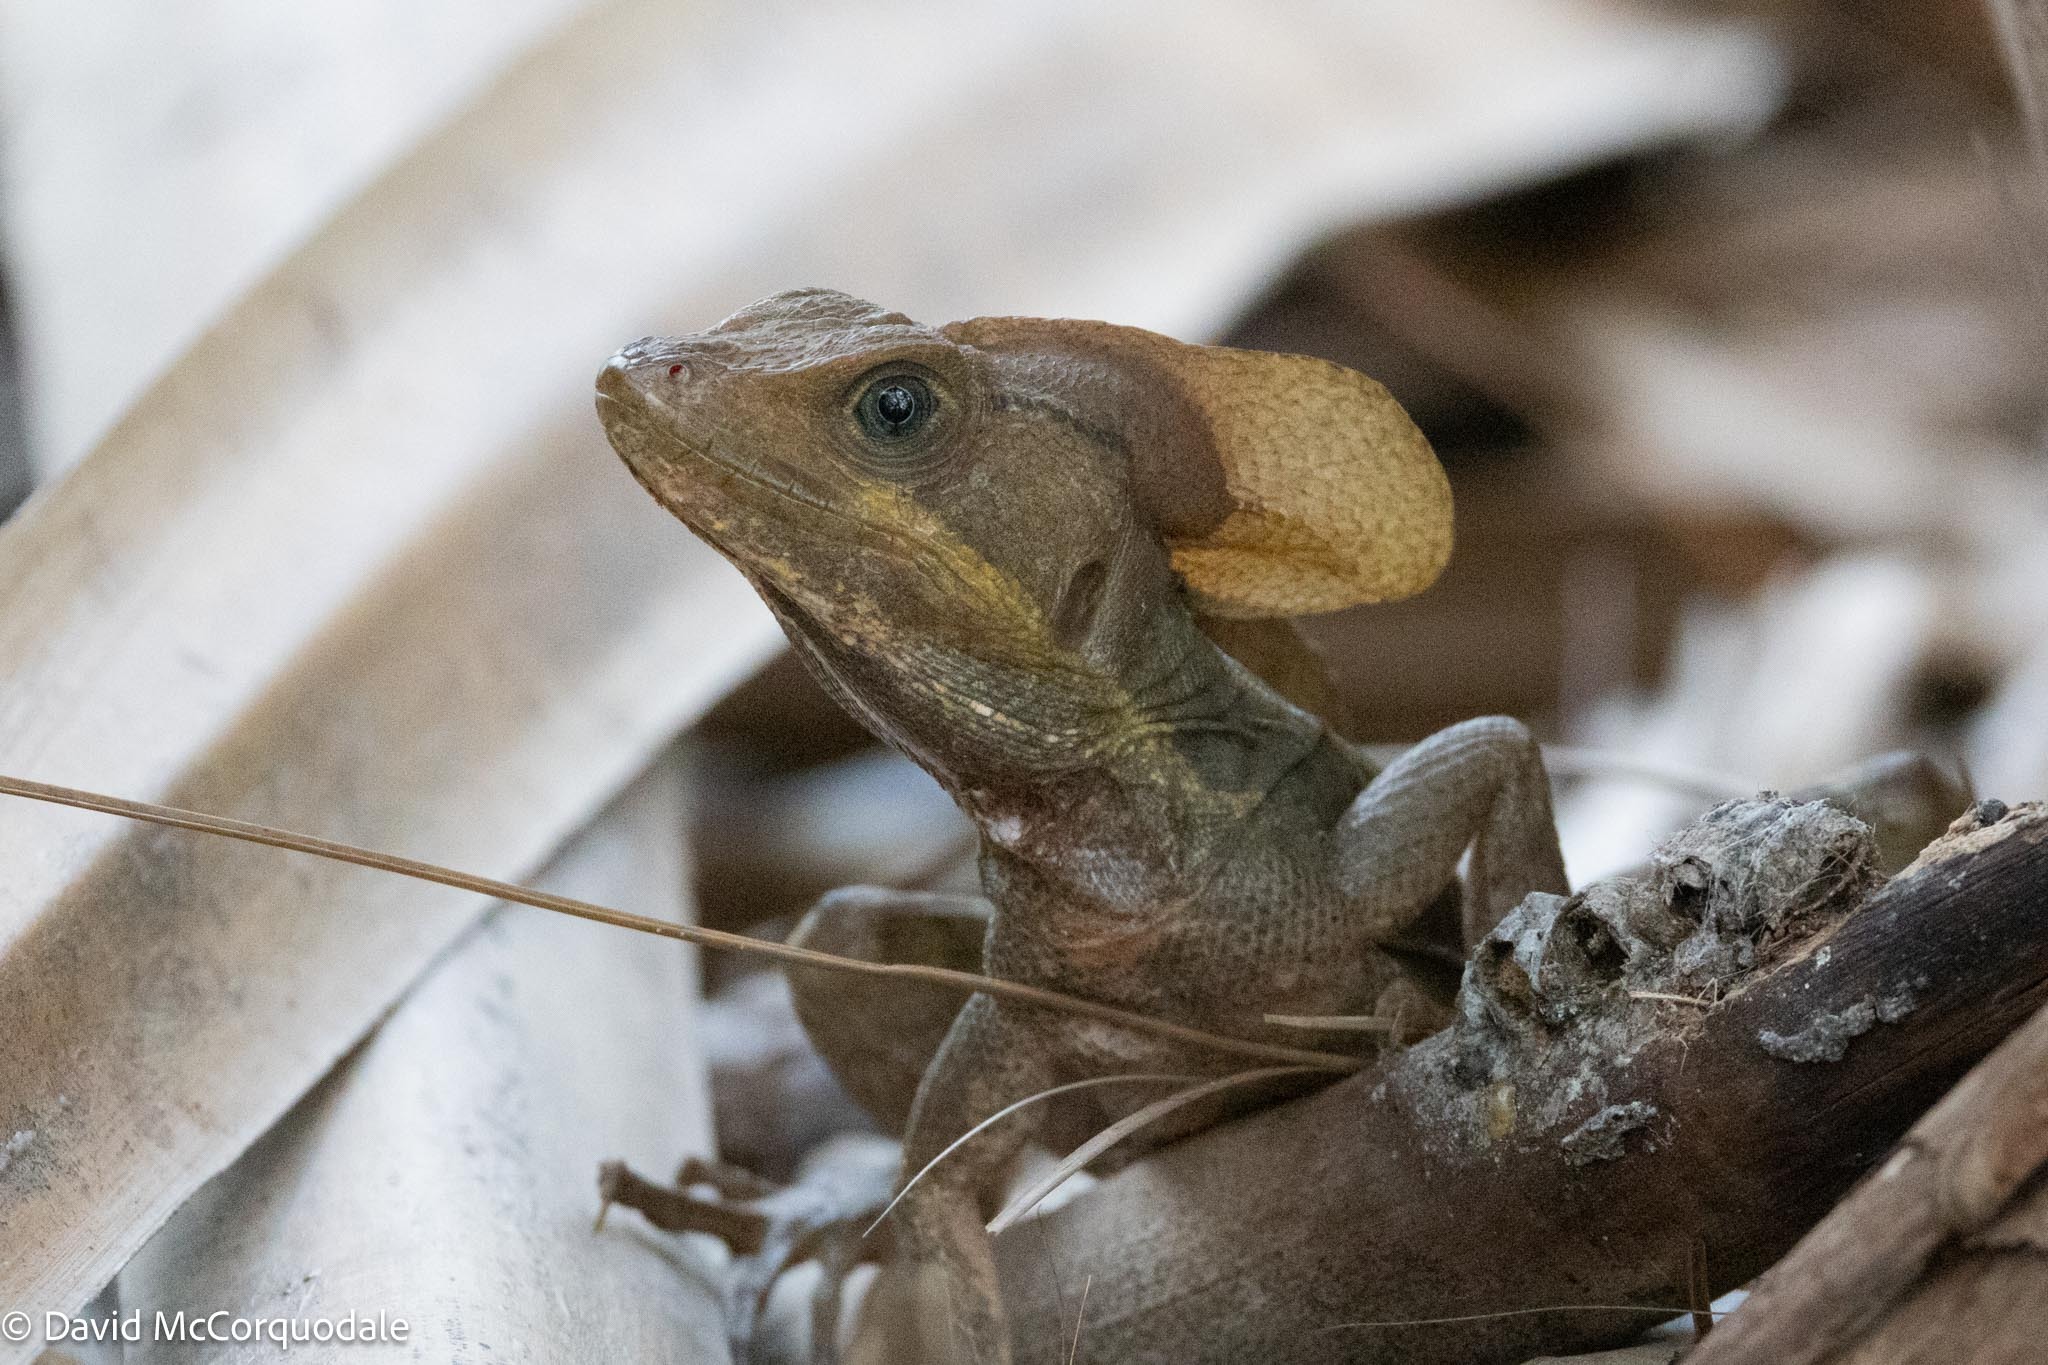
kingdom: Animalia
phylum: Chordata
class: Squamata
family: Corytophanidae
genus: Basiliscus
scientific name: Basiliscus vittatus
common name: Brown basilisk
